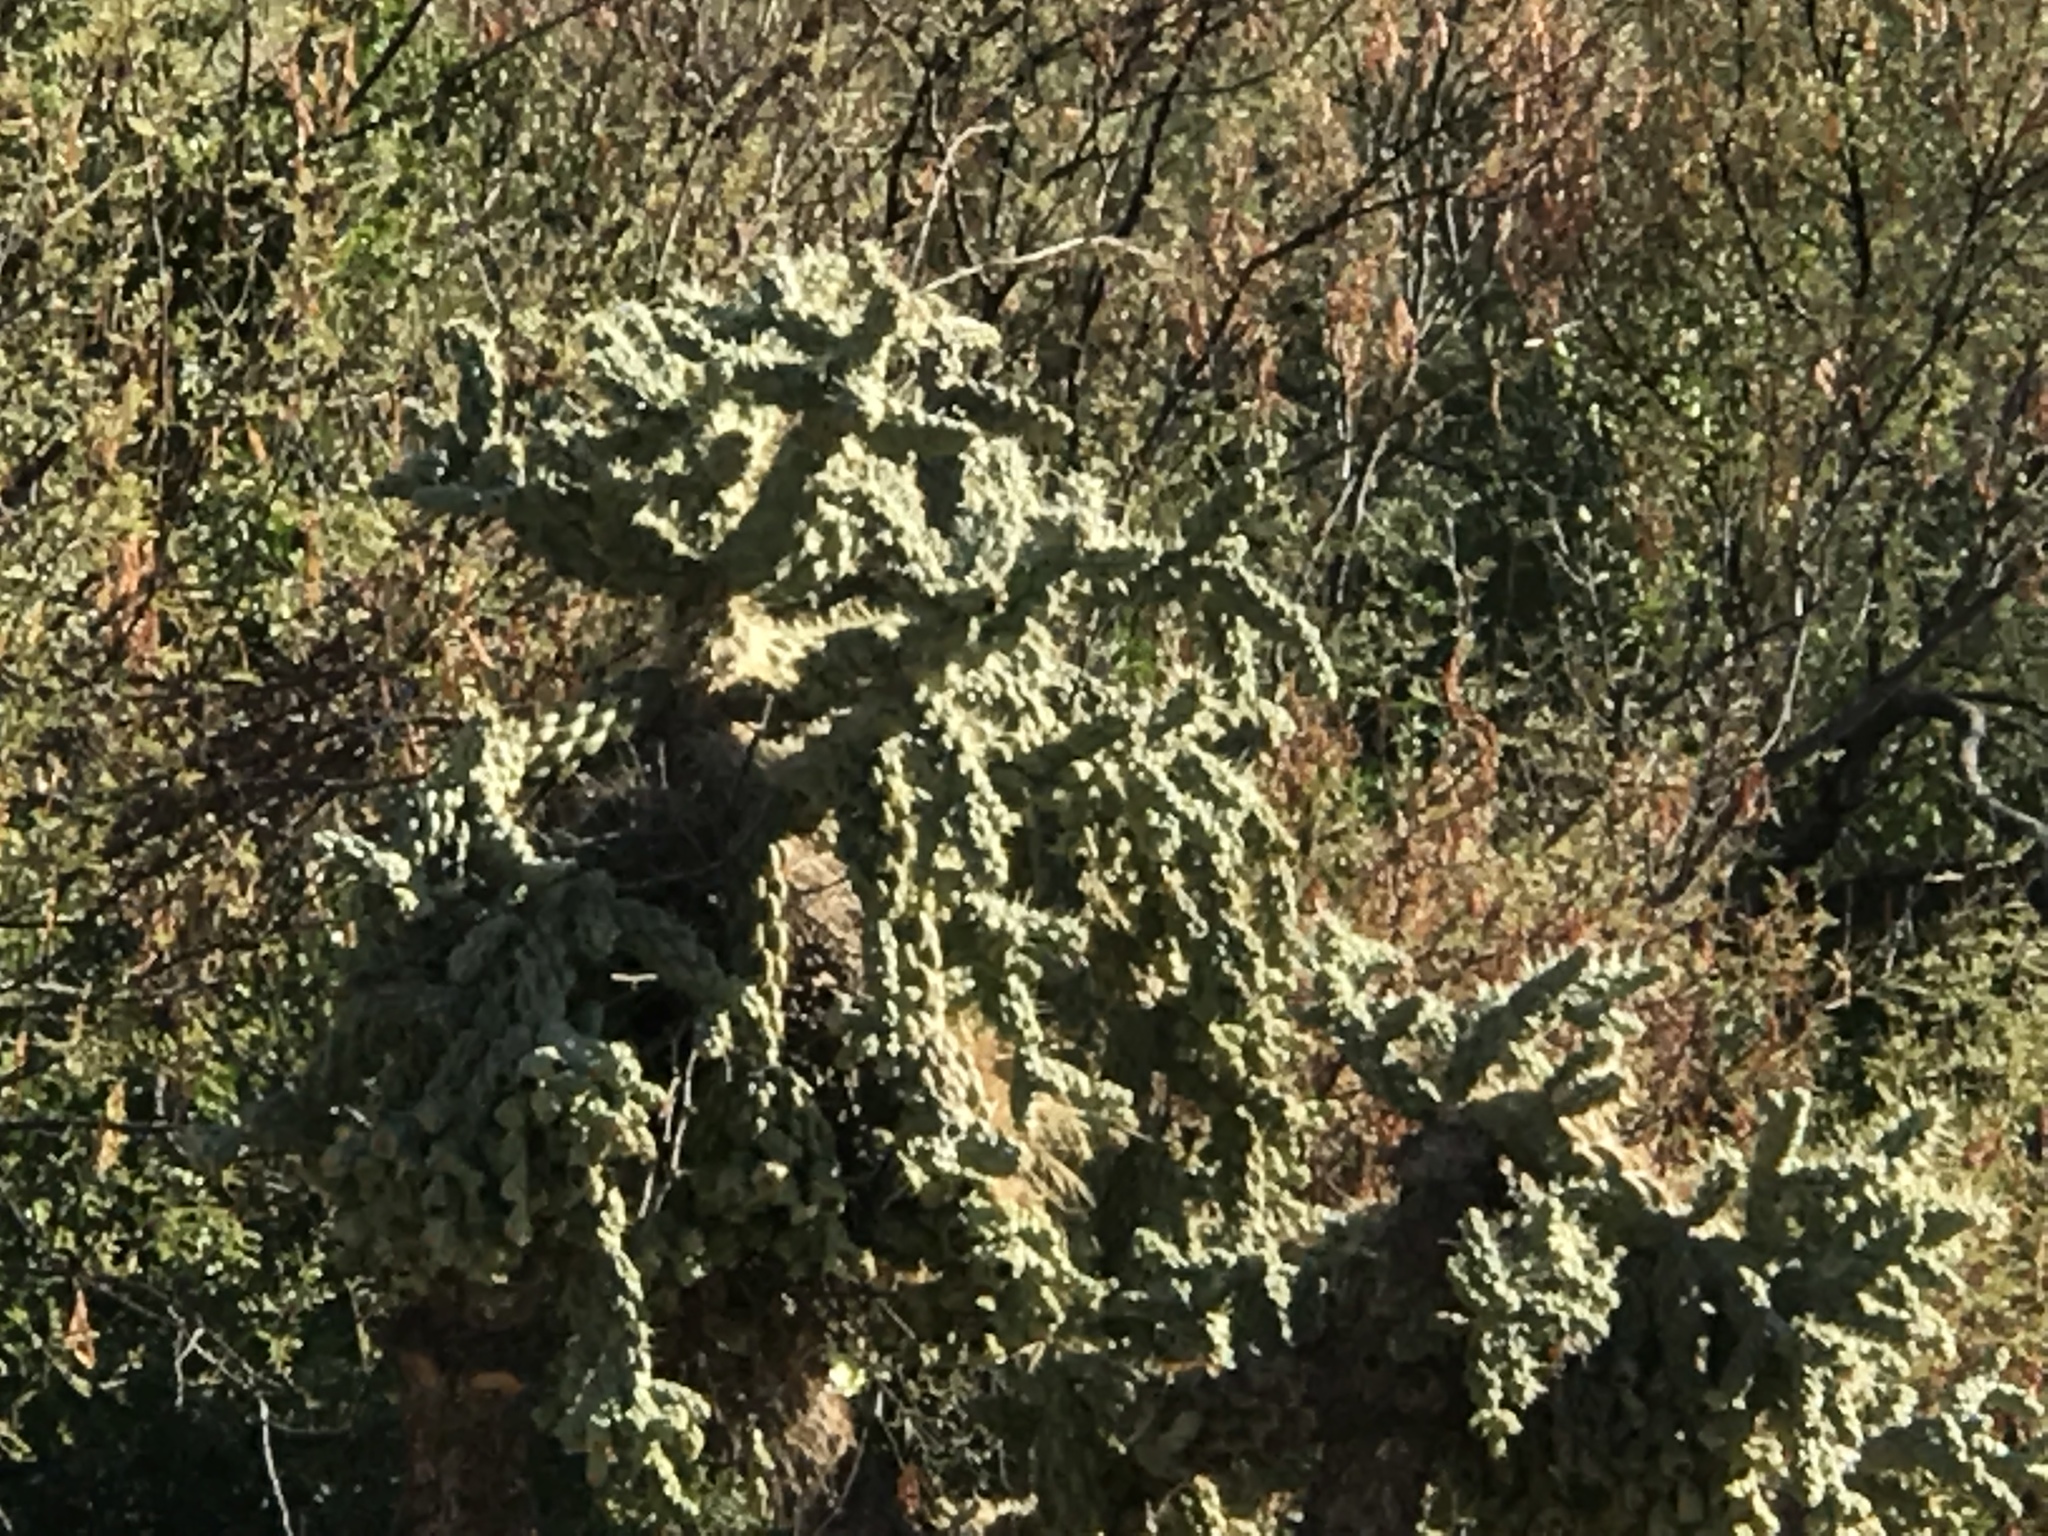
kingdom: Plantae
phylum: Tracheophyta
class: Magnoliopsida
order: Caryophyllales
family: Cactaceae
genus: Cylindropuntia
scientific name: Cylindropuntia fulgida
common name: Jumping cholla
